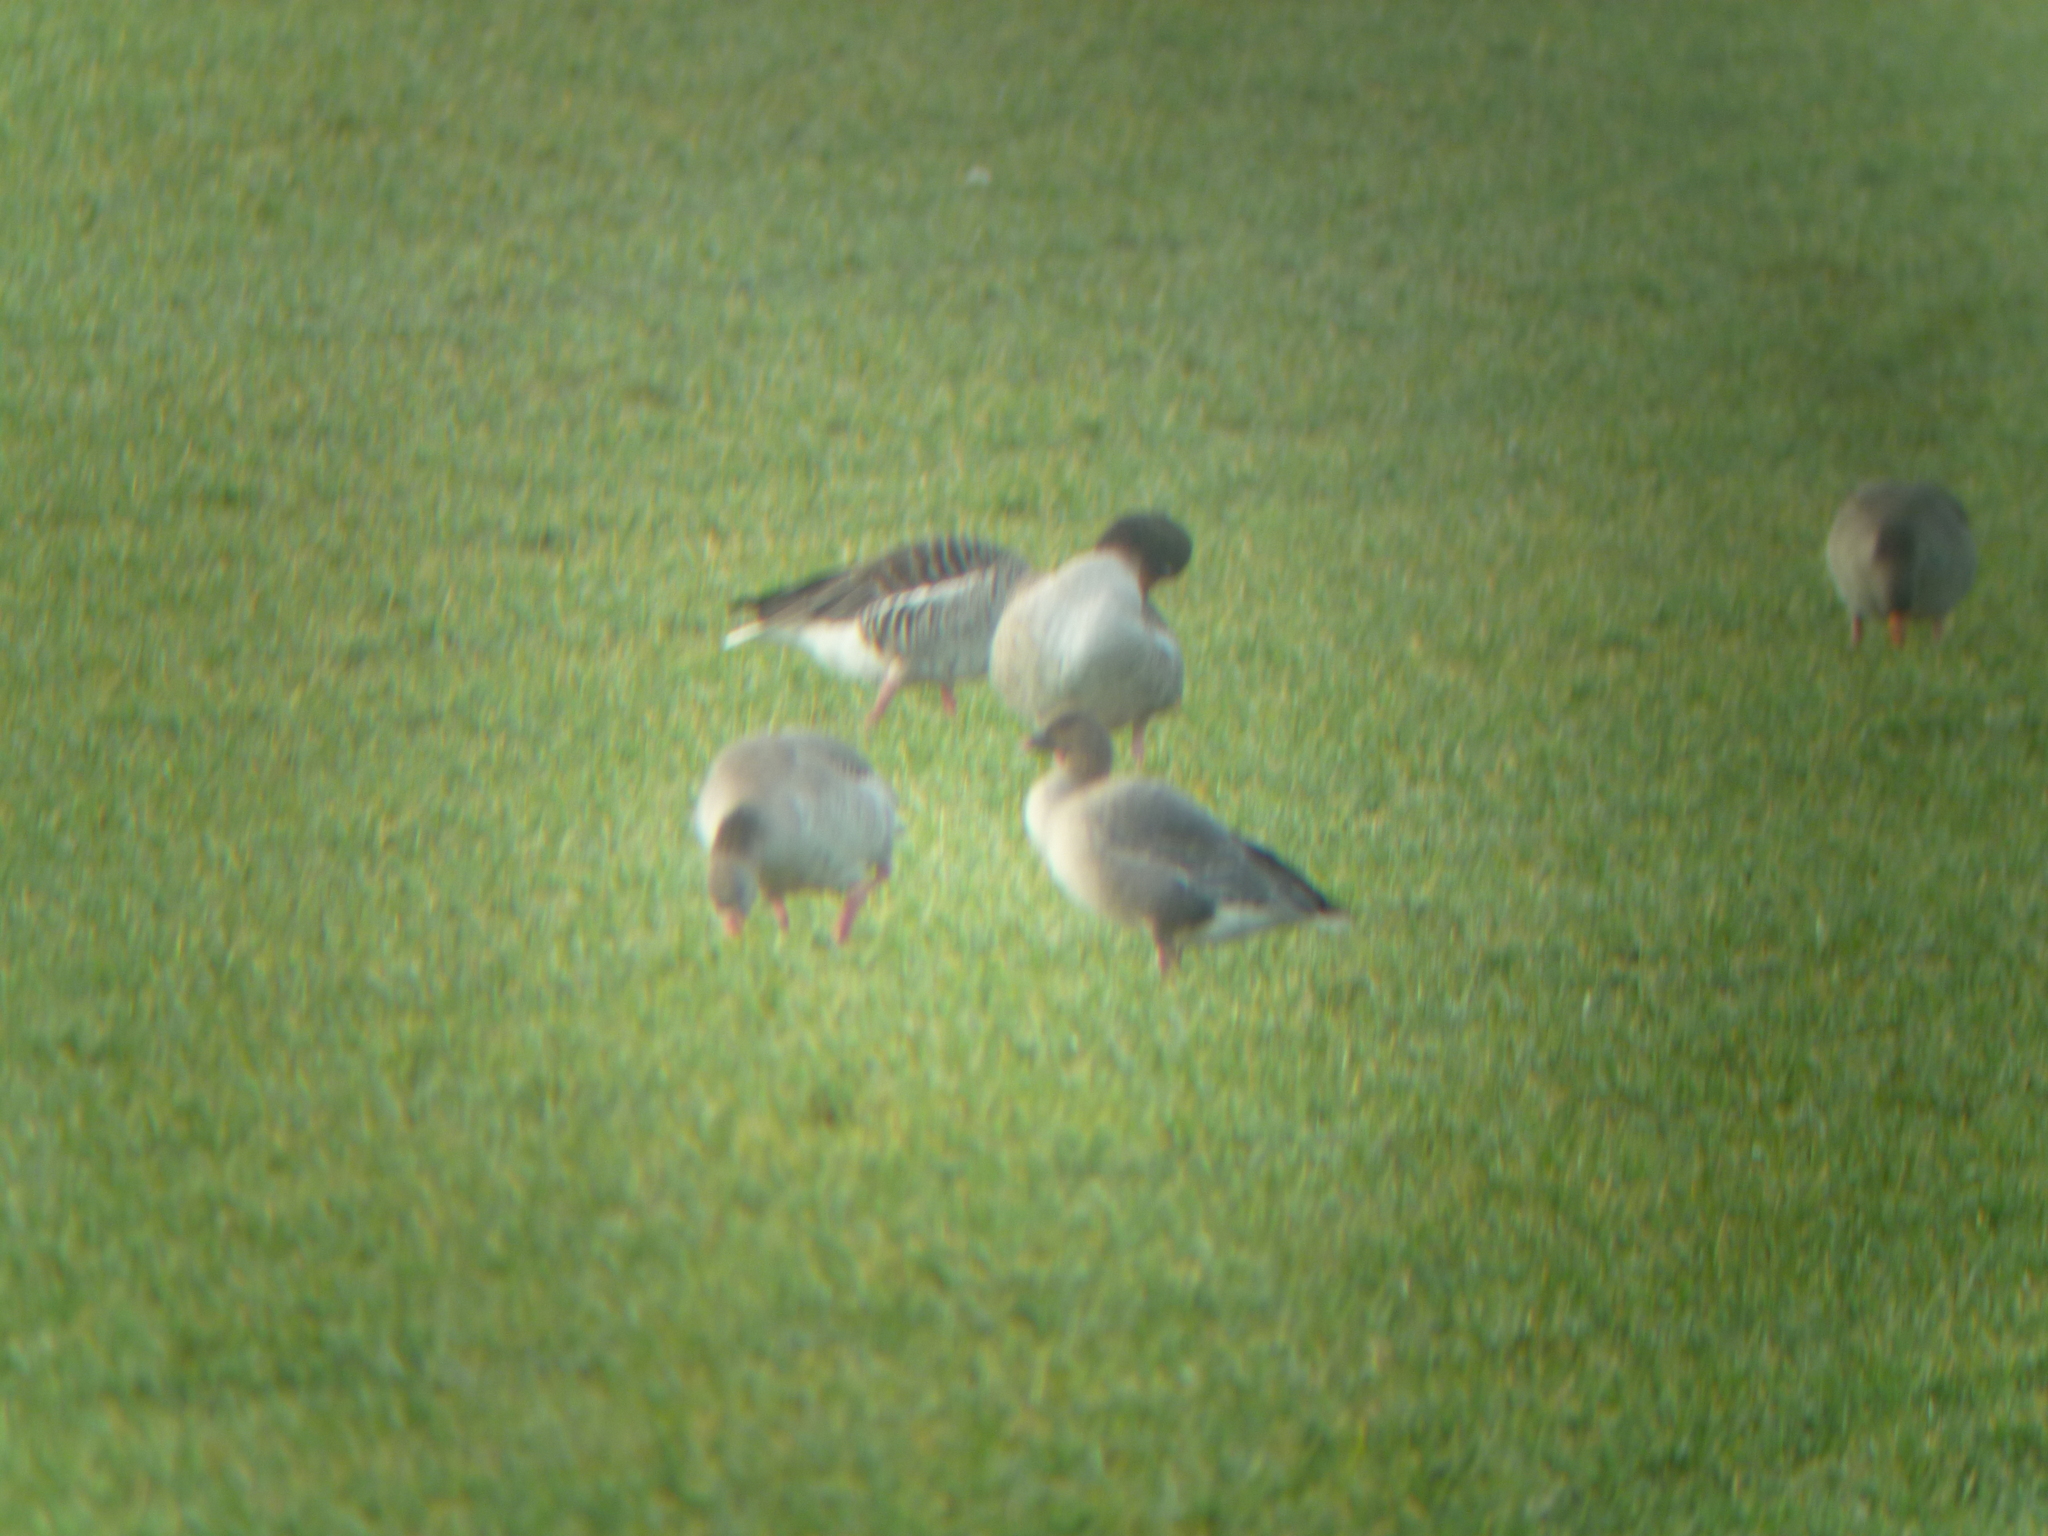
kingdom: Animalia
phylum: Chordata
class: Aves
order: Anseriformes
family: Anatidae
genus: Anser
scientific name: Anser brachyrhynchus
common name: Pink-footed goose
